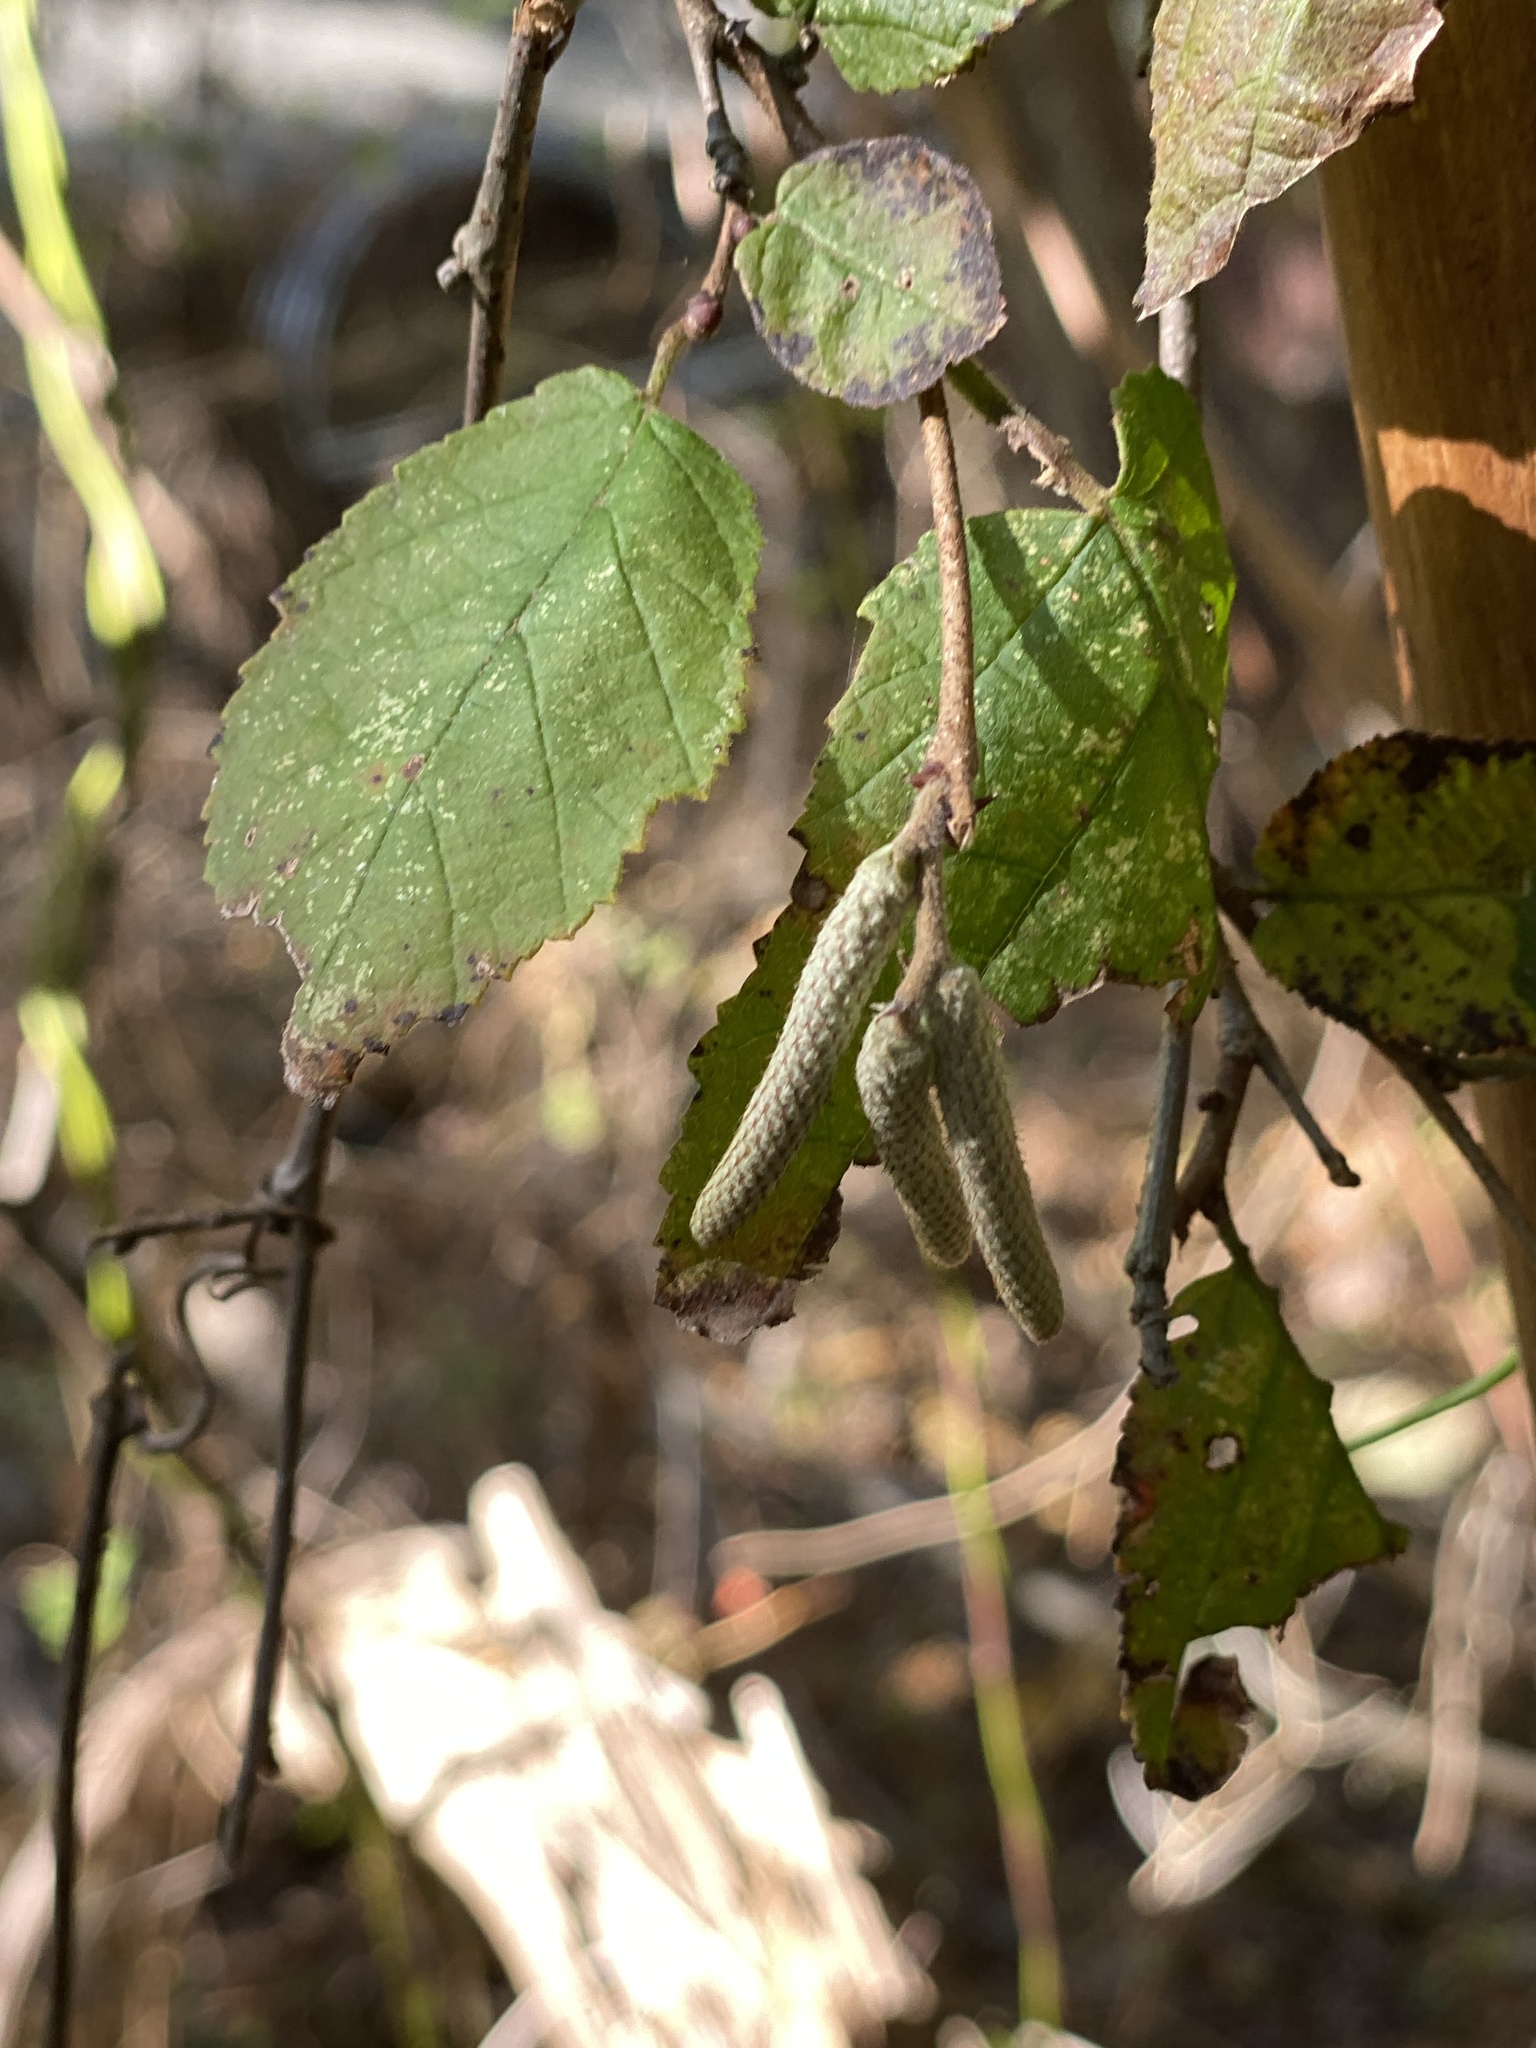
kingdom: Plantae
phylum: Tracheophyta
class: Magnoliopsida
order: Fagales
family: Betulaceae
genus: Corylus
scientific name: Corylus americana
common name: American hazel
